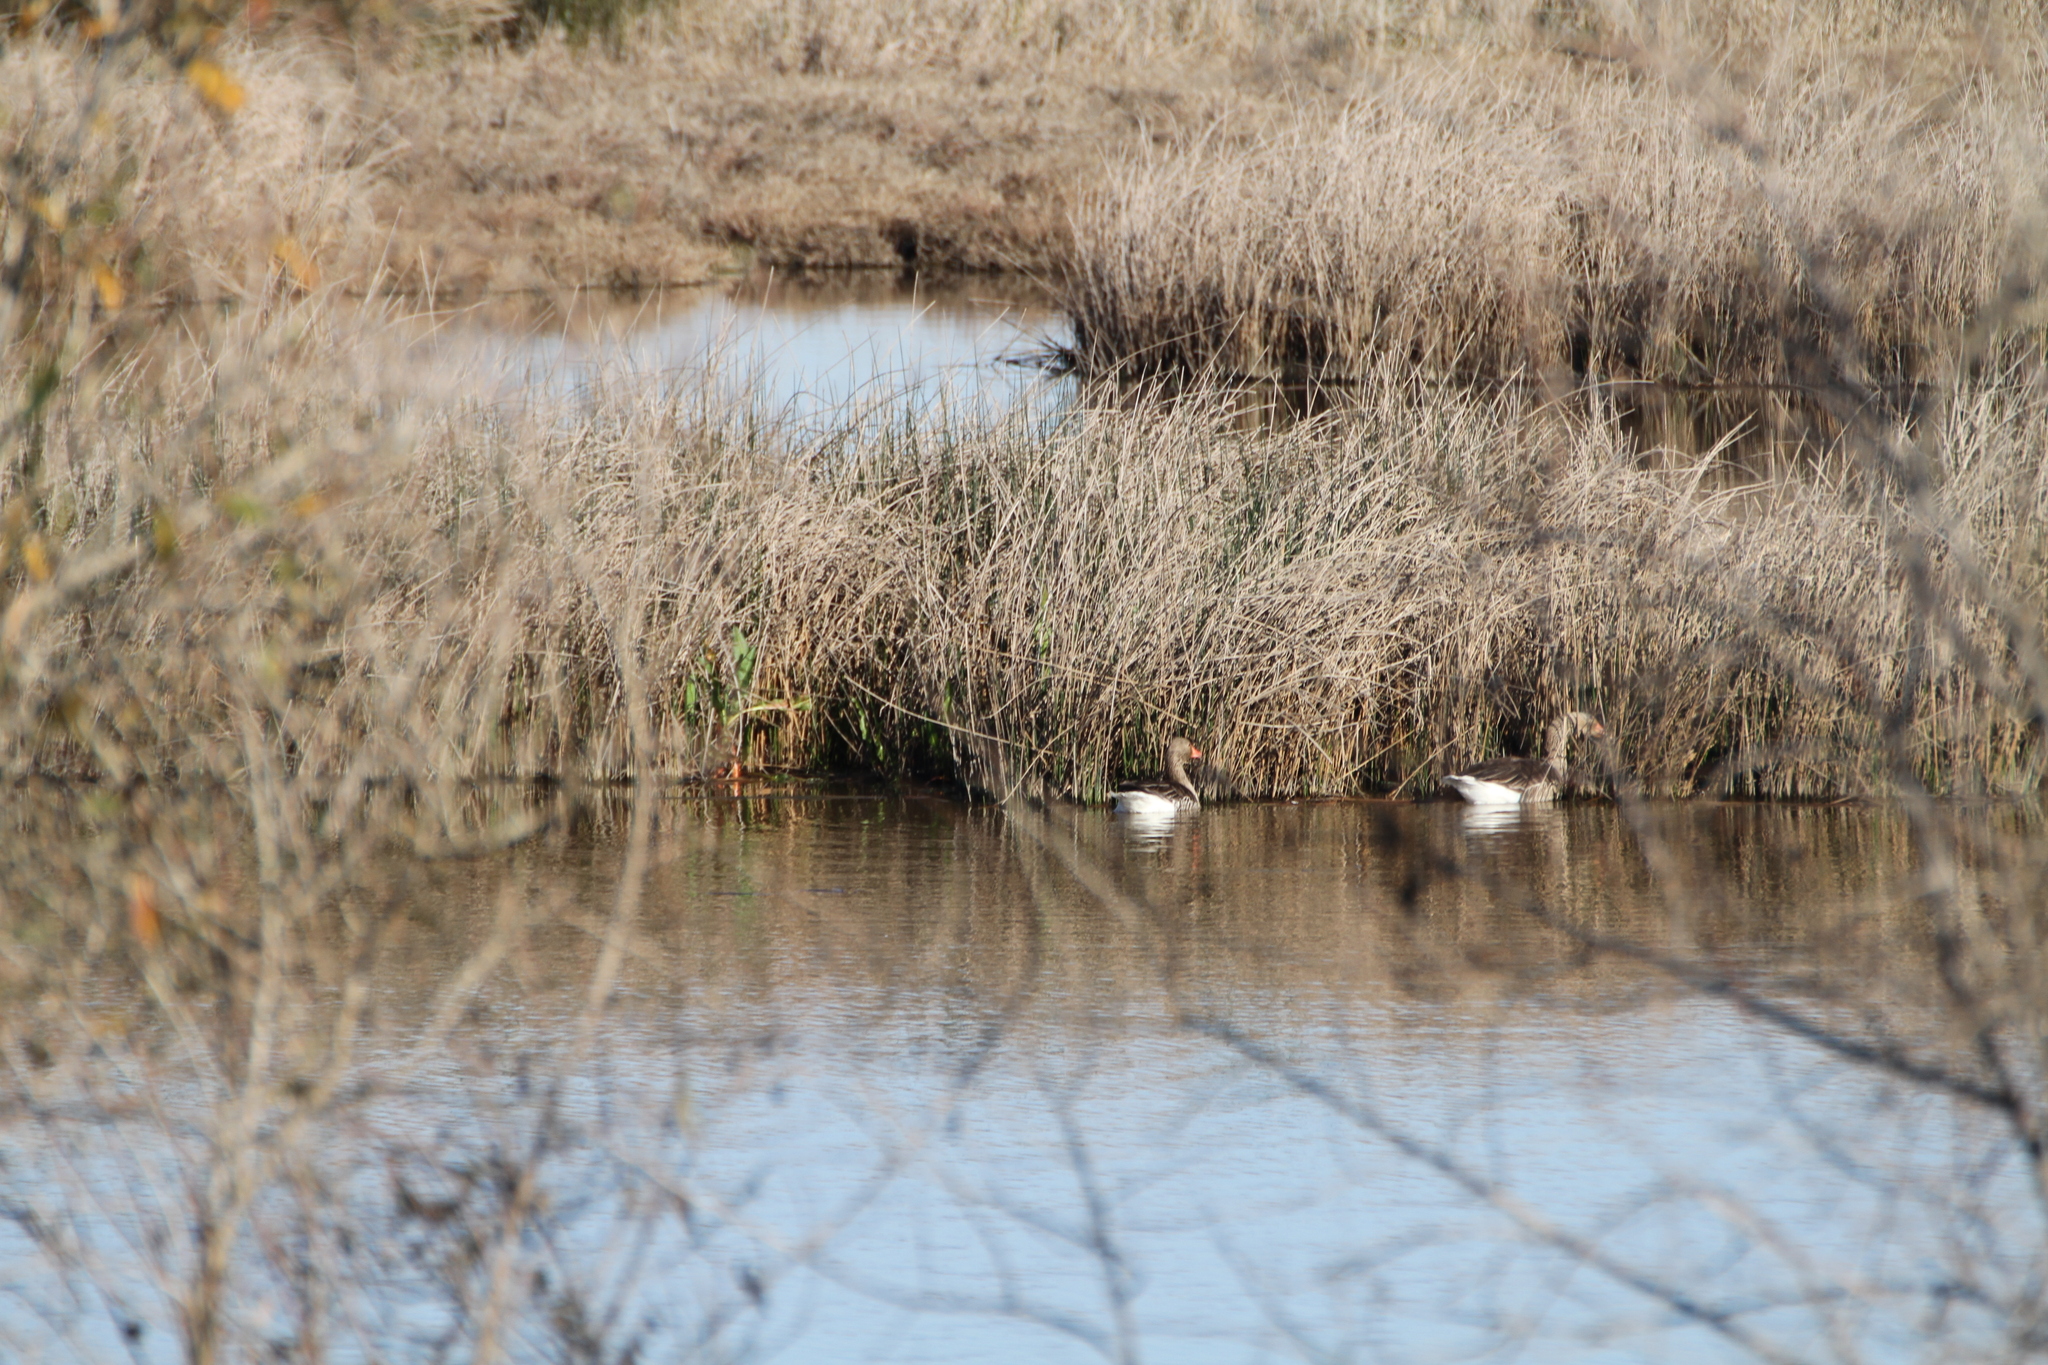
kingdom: Animalia
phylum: Chordata
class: Aves
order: Anseriformes
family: Anatidae
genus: Anser
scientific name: Anser anser
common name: Greylag goose
